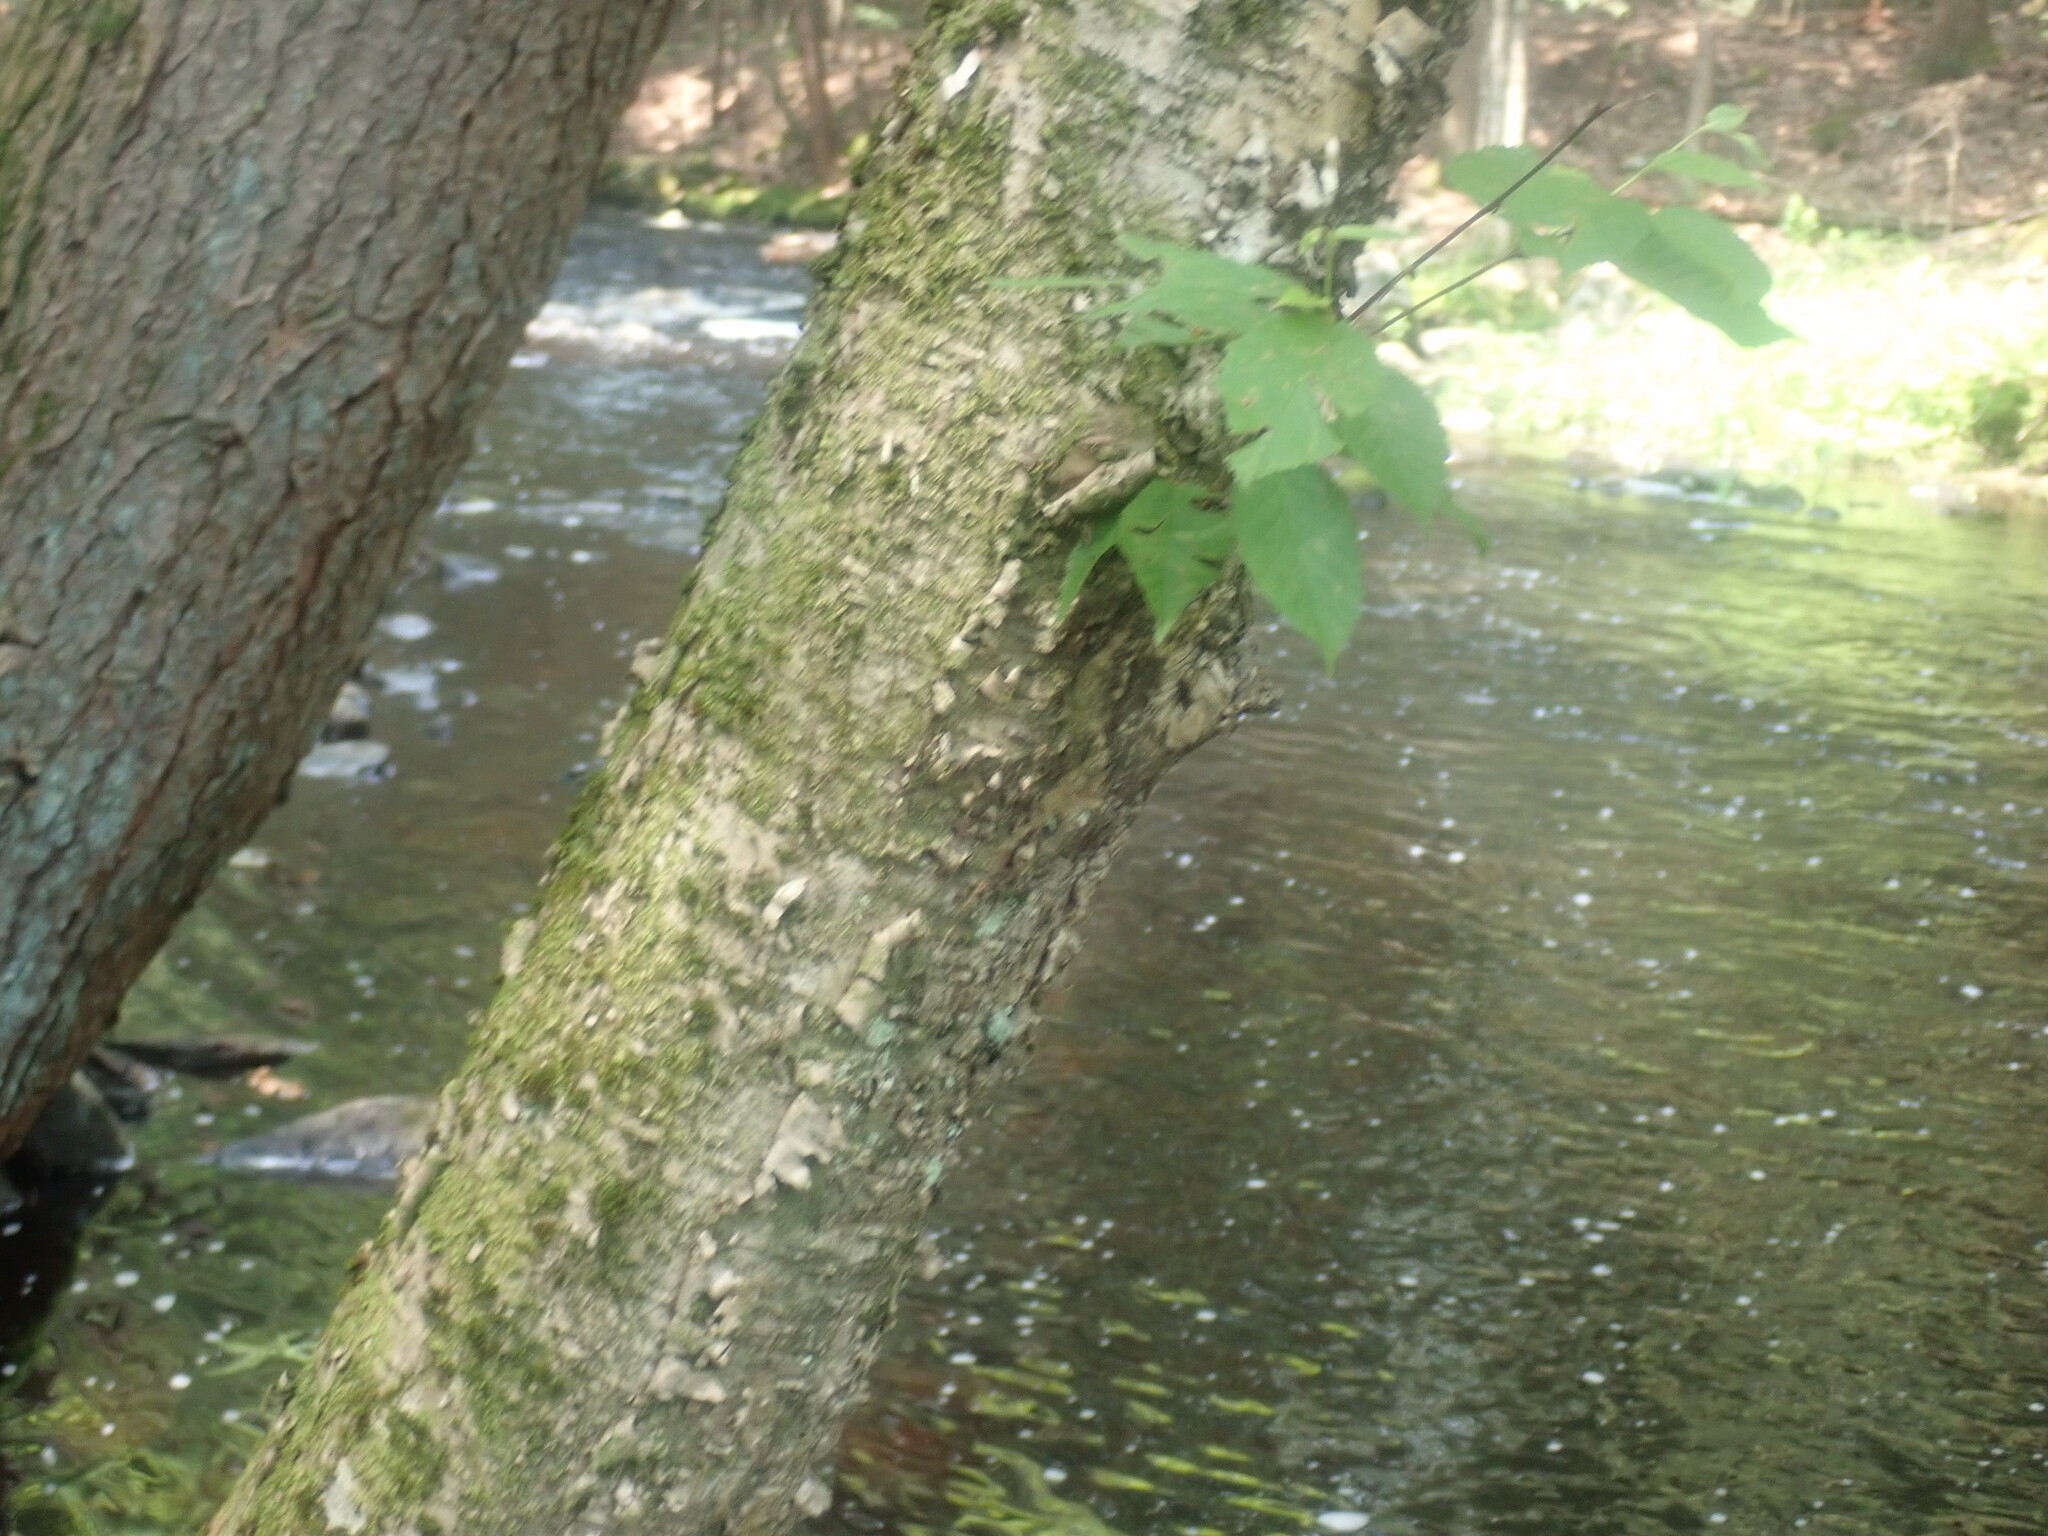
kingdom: Plantae
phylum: Tracheophyta
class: Magnoliopsida
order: Fagales
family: Betulaceae
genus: Betula
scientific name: Betula alleghaniensis
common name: Yellow birch
